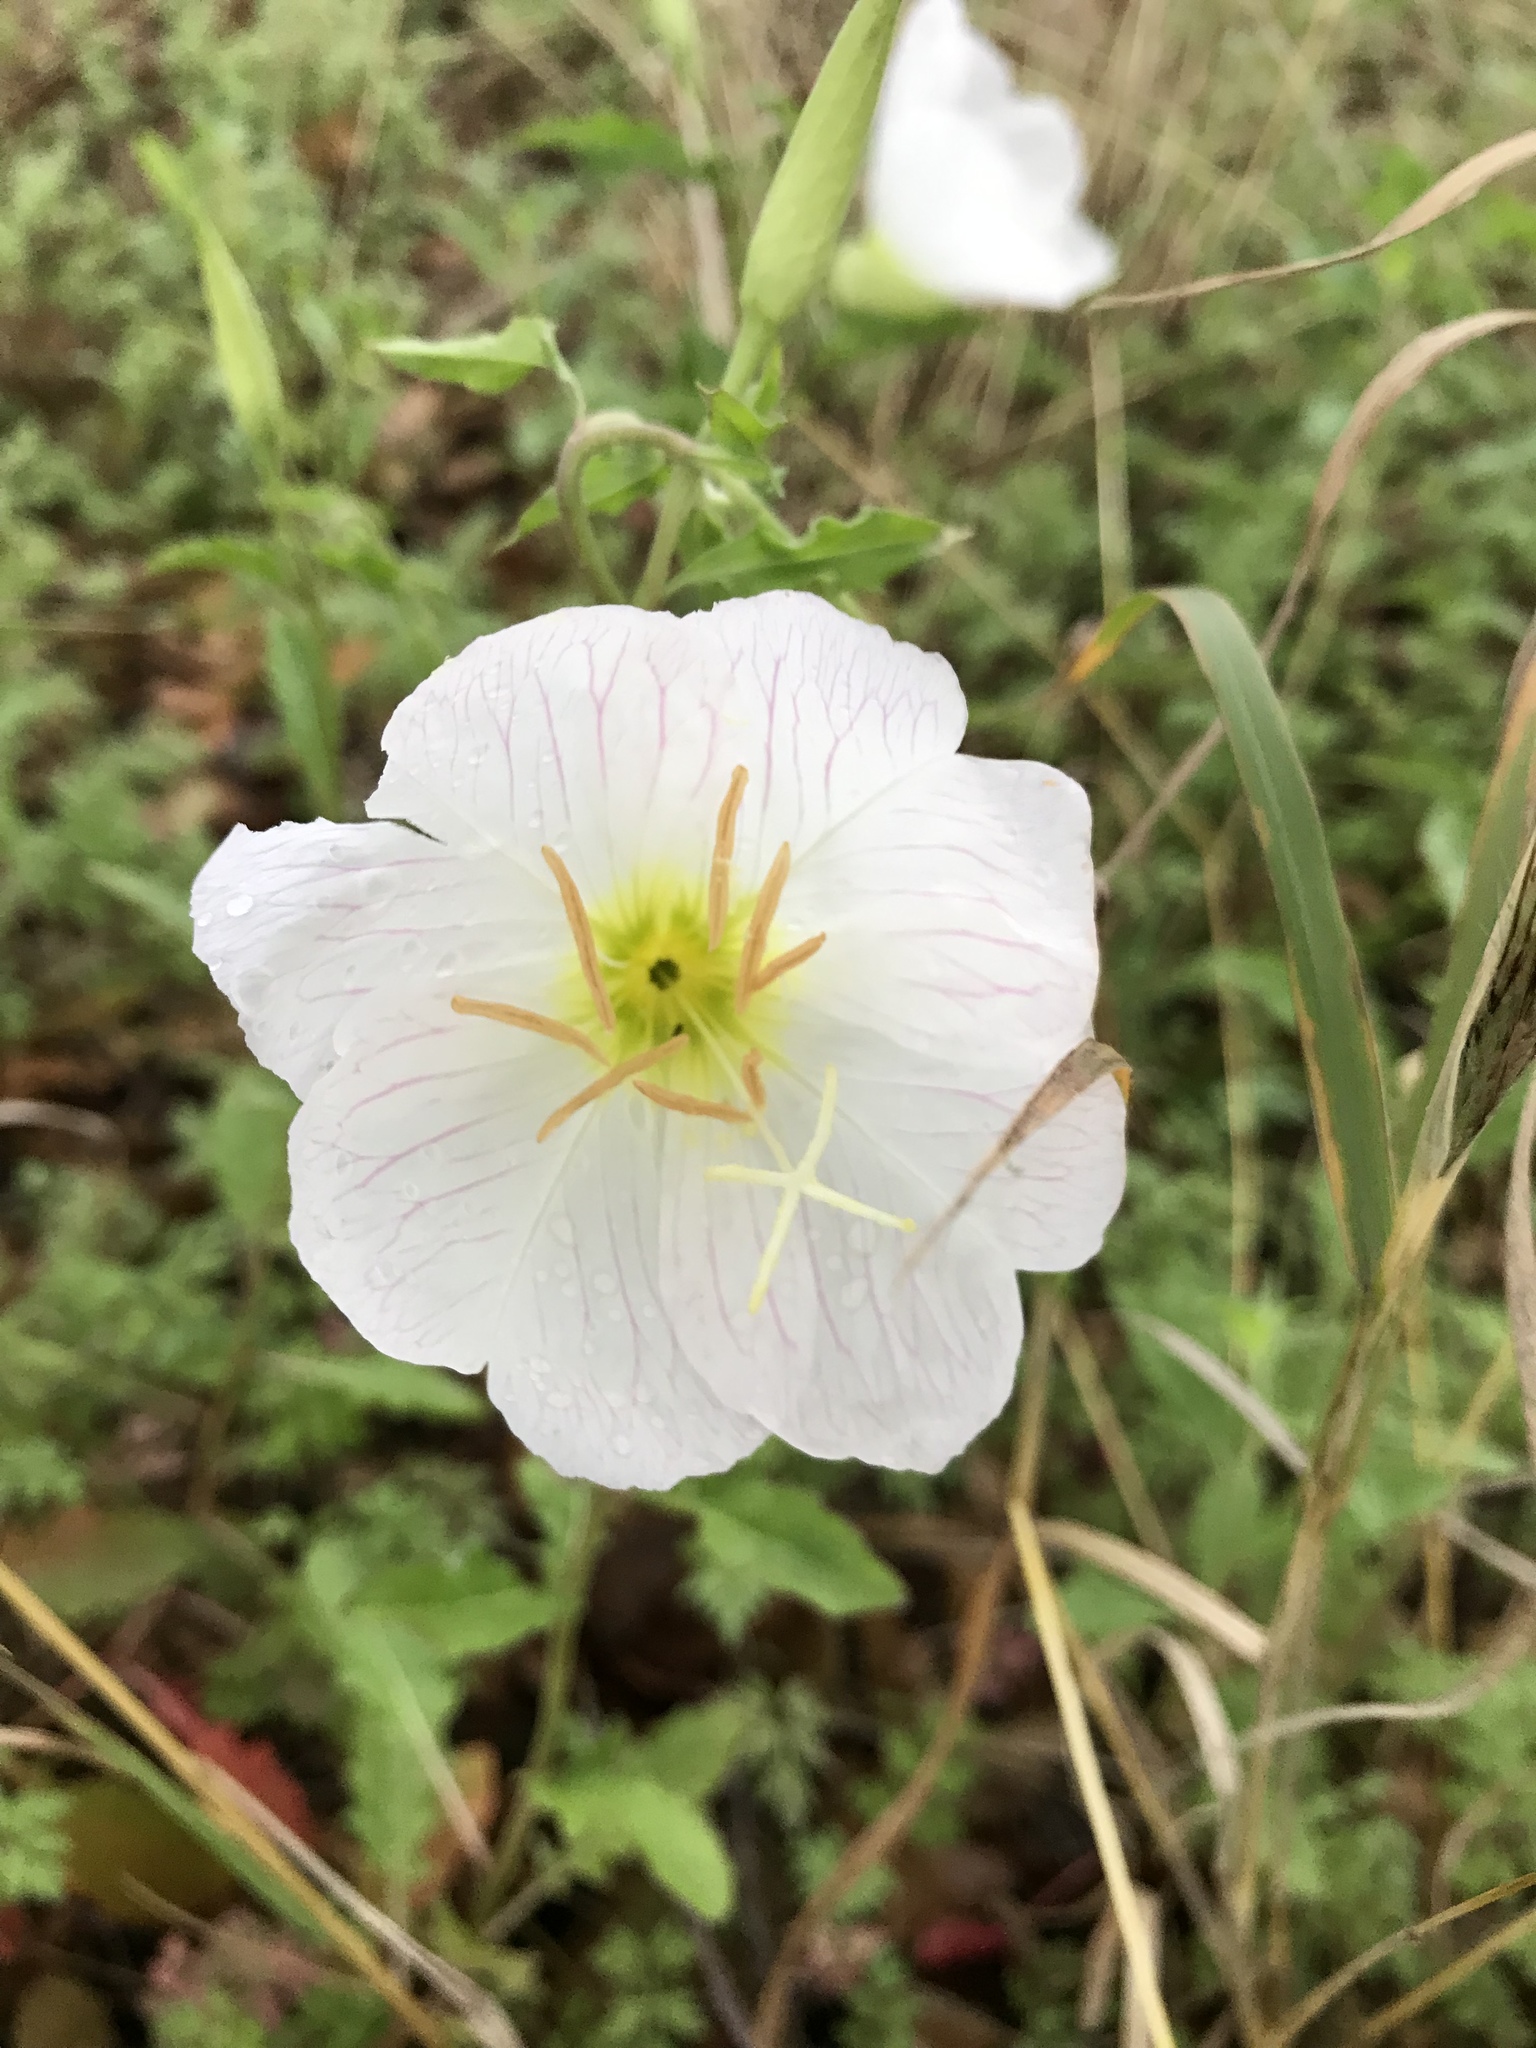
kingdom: Plantae
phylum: Tracheophyta
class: Magnoliopsida
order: Myrtales
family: Onagraceae
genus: Oenothera
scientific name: Oenothera speciosa
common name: White evening-primrose
